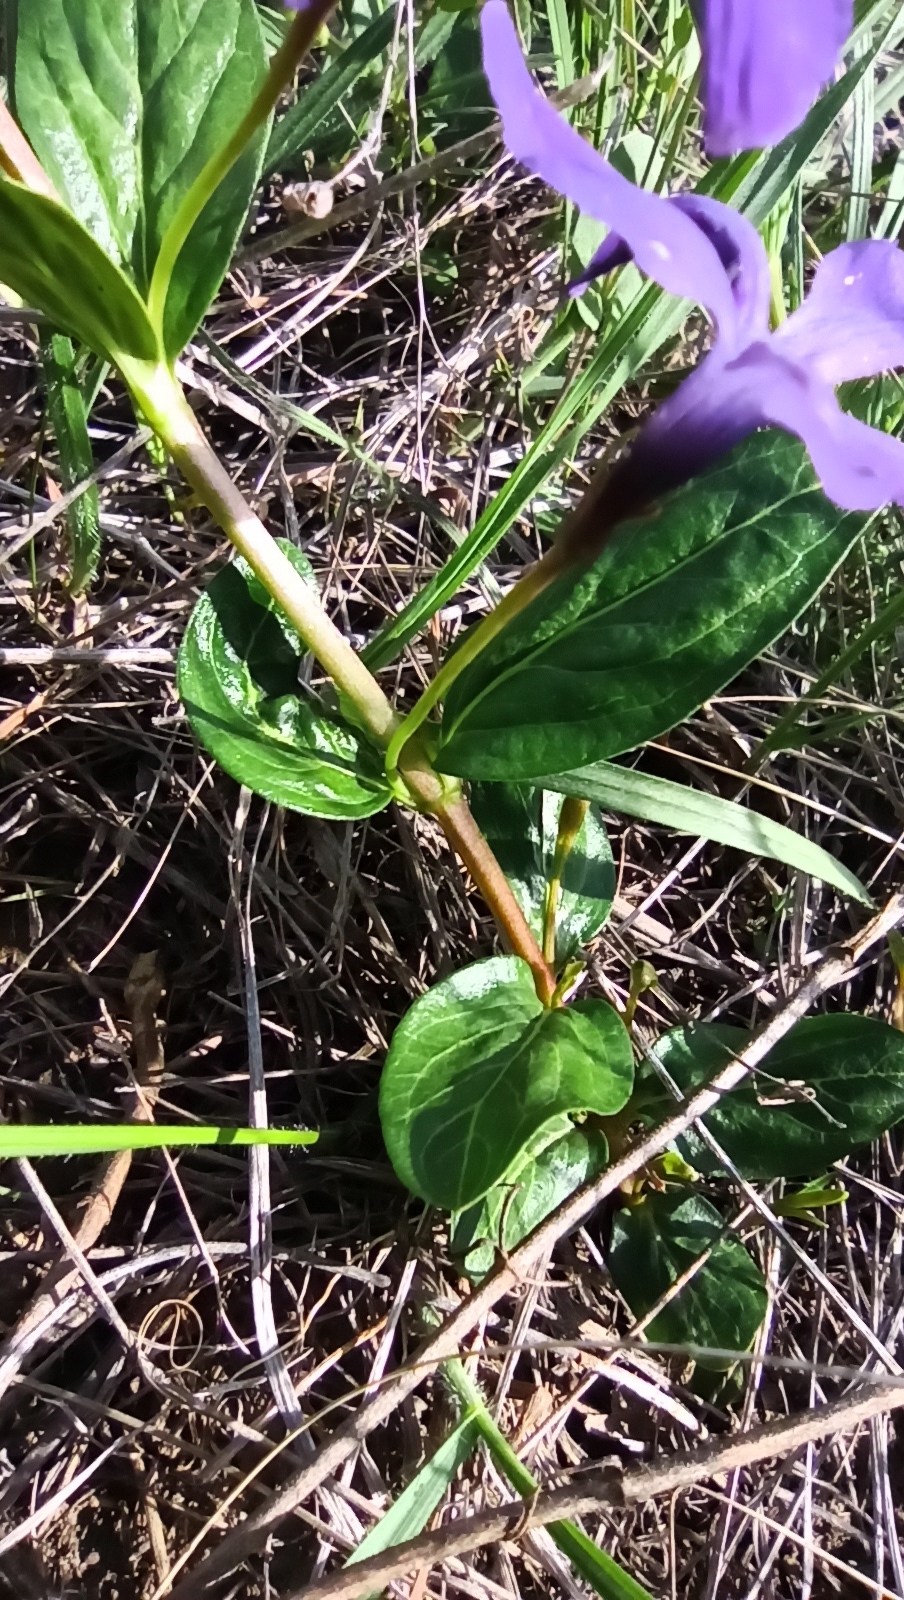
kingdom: Plantae
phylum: Tracheophyta
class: Magnoliopsida
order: Gentianales
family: Apocynaceae
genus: Vinca
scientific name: Vinca herbacea
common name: Herbaceous periwinkle
